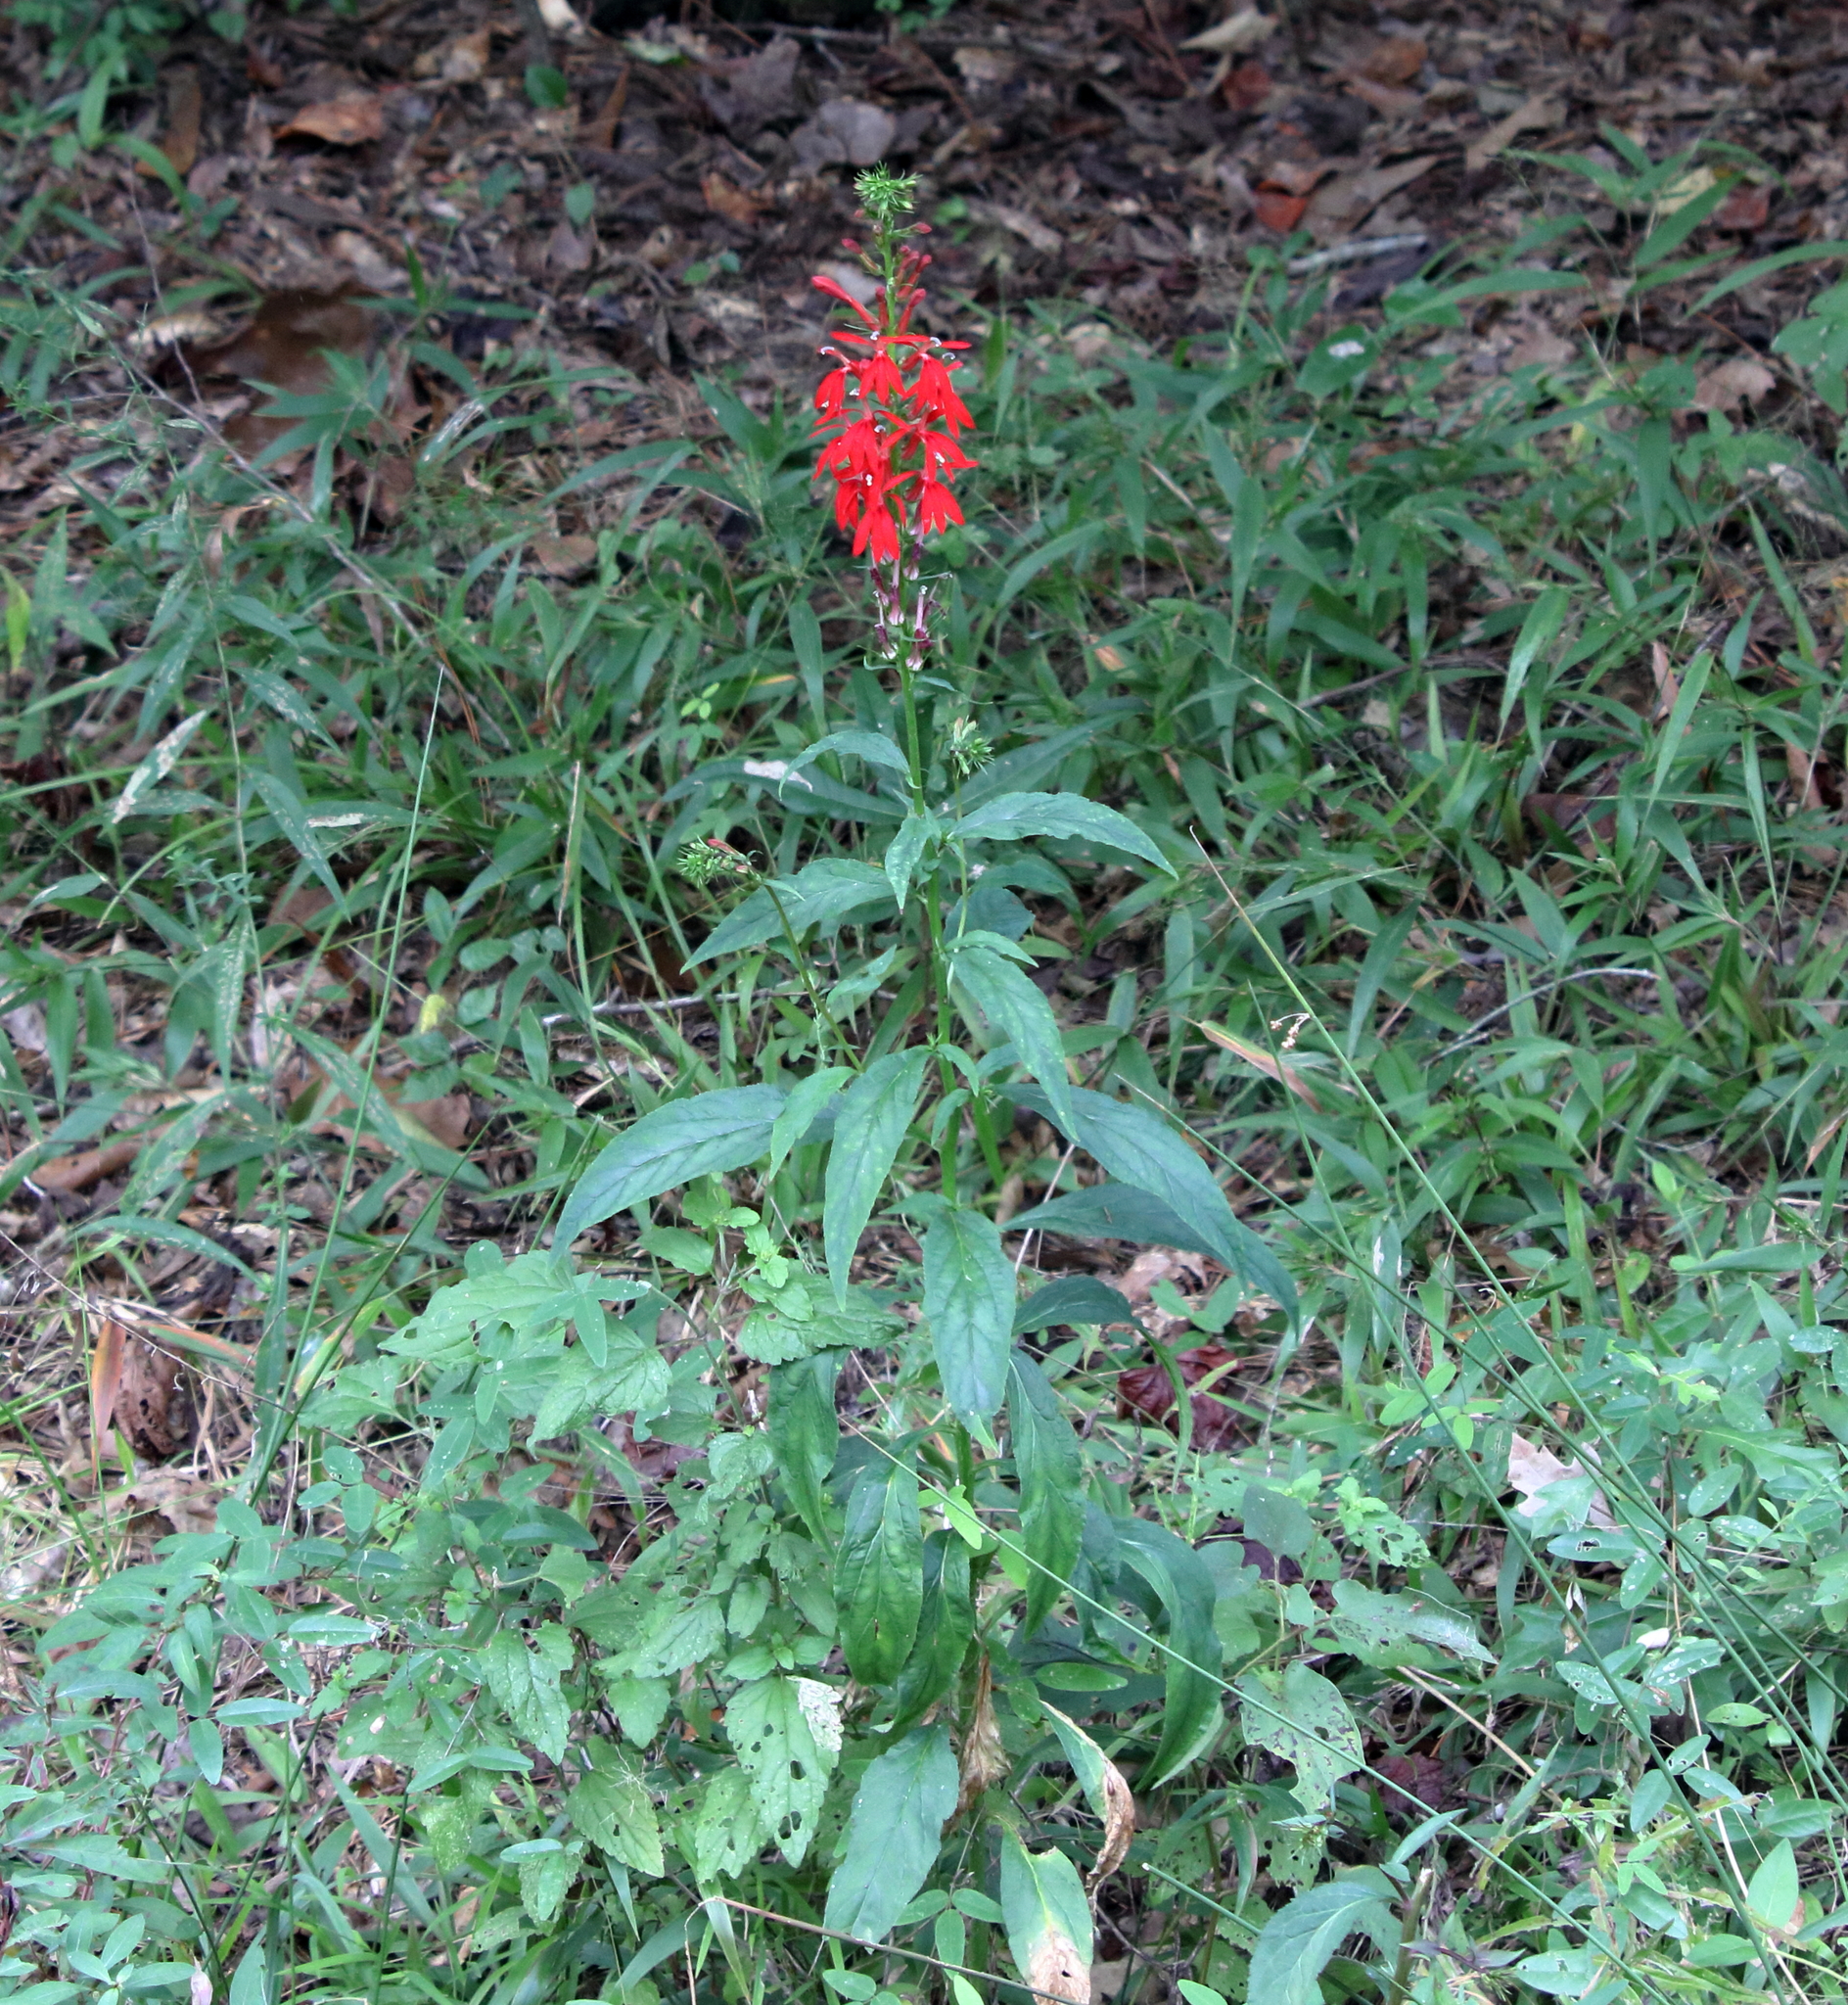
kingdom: Plantae
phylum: Tracheophyta
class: Magnoliopsida
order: Asterales
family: Campanulaceae
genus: Lobelia
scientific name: Lobelia cardinalis
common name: Cardinal flower
